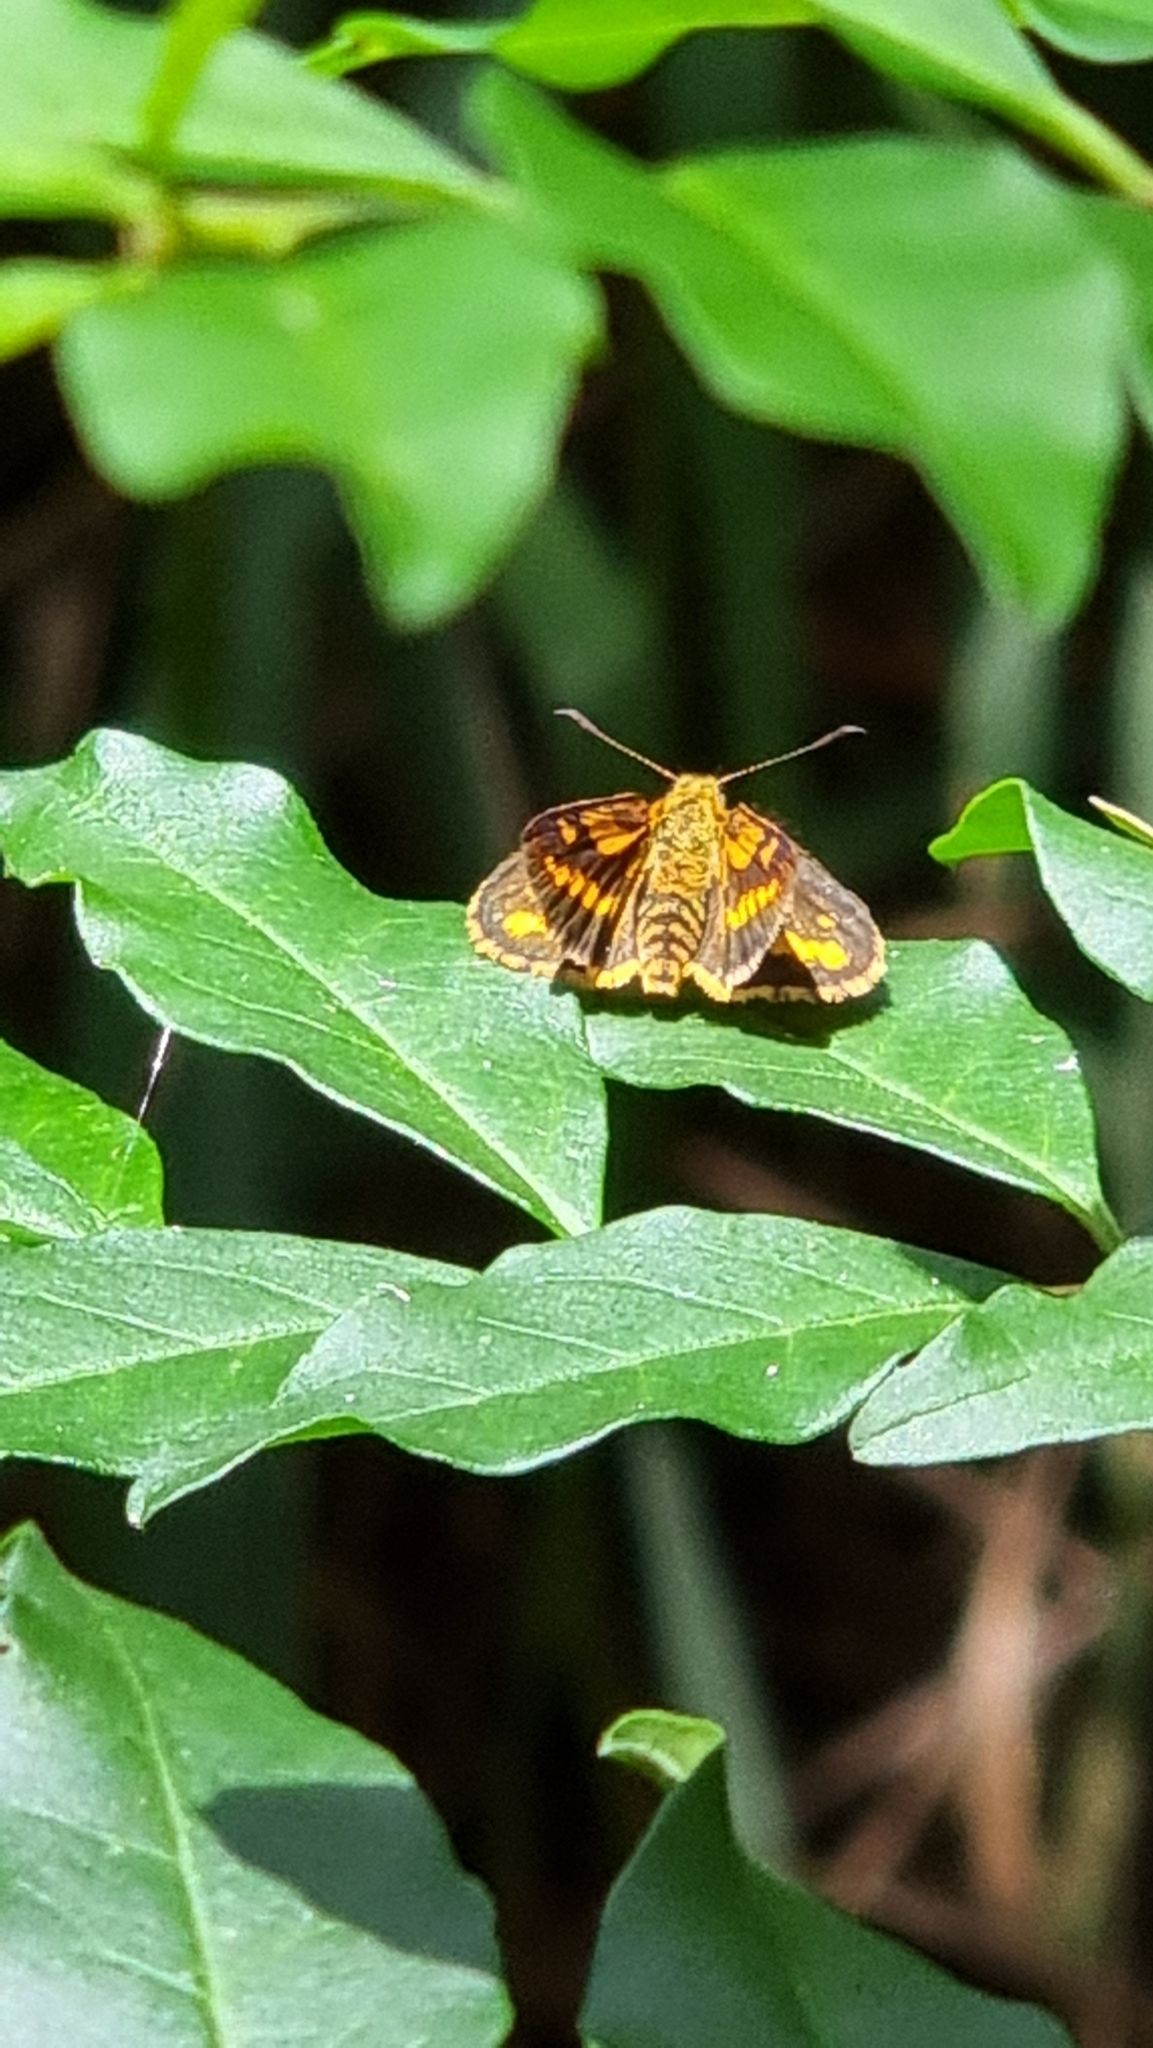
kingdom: Animalia
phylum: Arthropoda
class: Insecta
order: Lepidoptera
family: Hesperiidae
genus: Suniana
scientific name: Suniana sunias
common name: Wide-brand grass-dart
